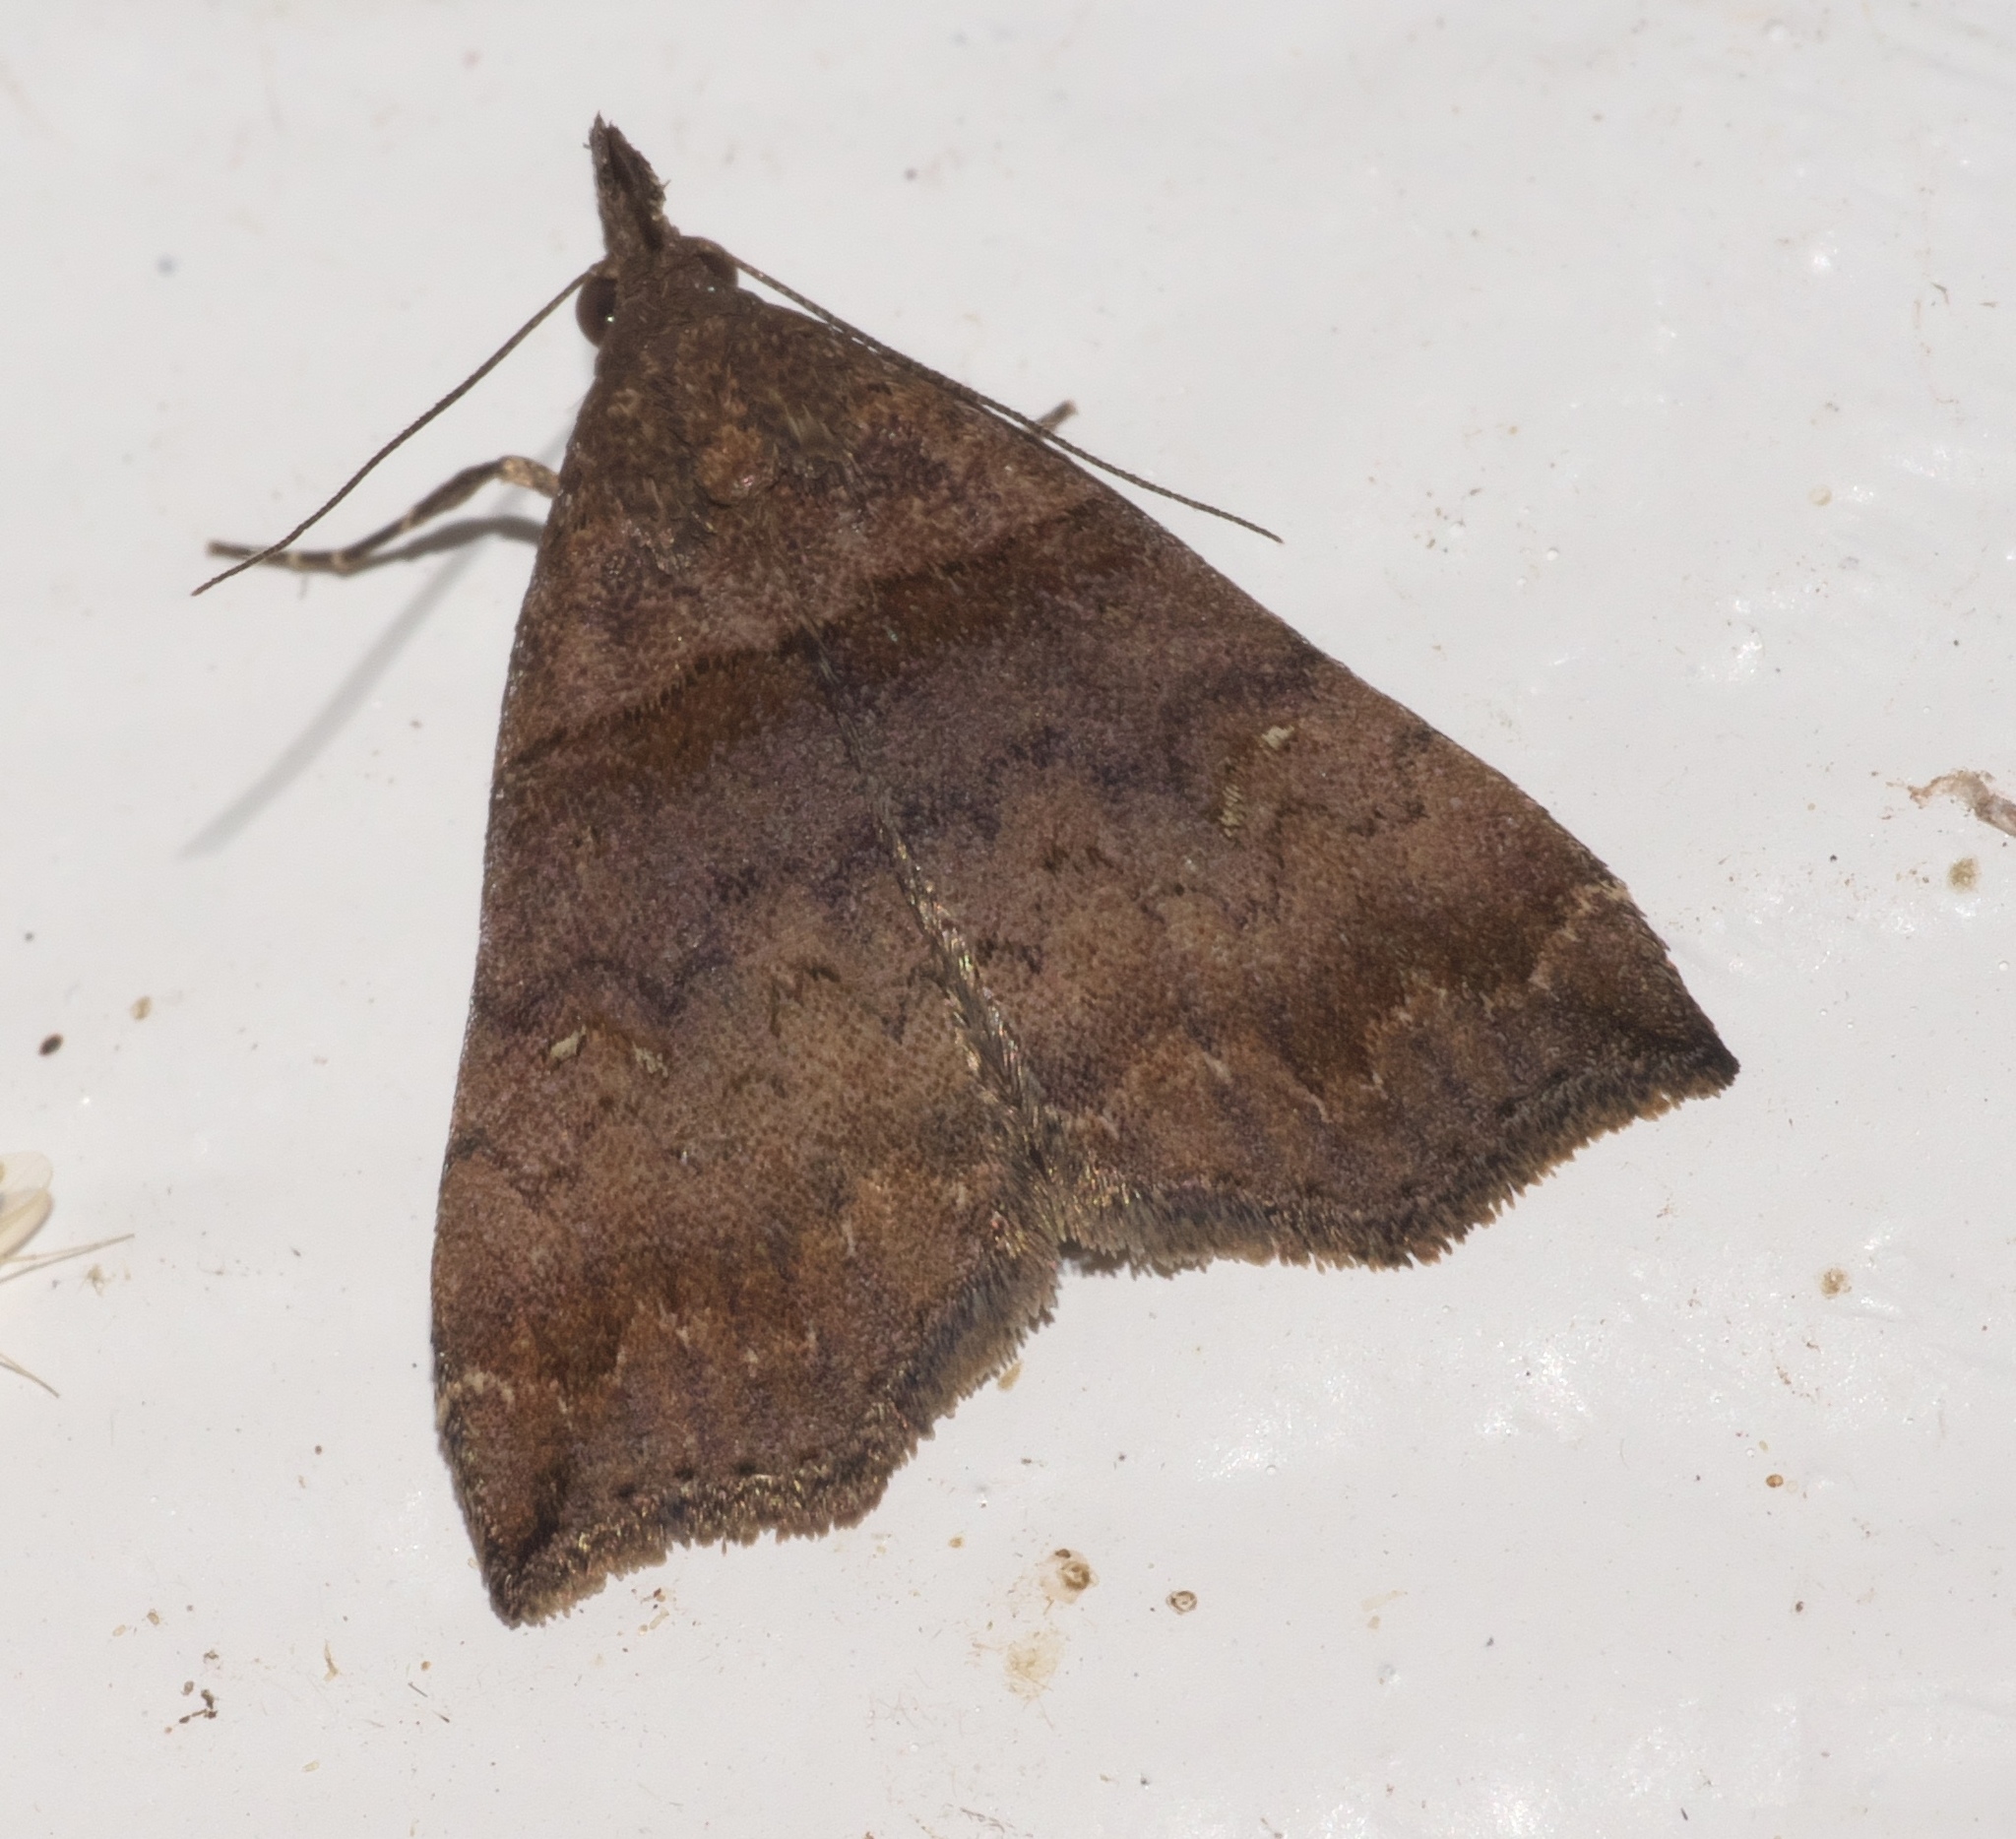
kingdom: Animalia
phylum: Arthropoda
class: Insecta
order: Lepidoptera
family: Erebidae
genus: Lascoria
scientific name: Lascoria ambigualis
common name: Ambiguous moth
